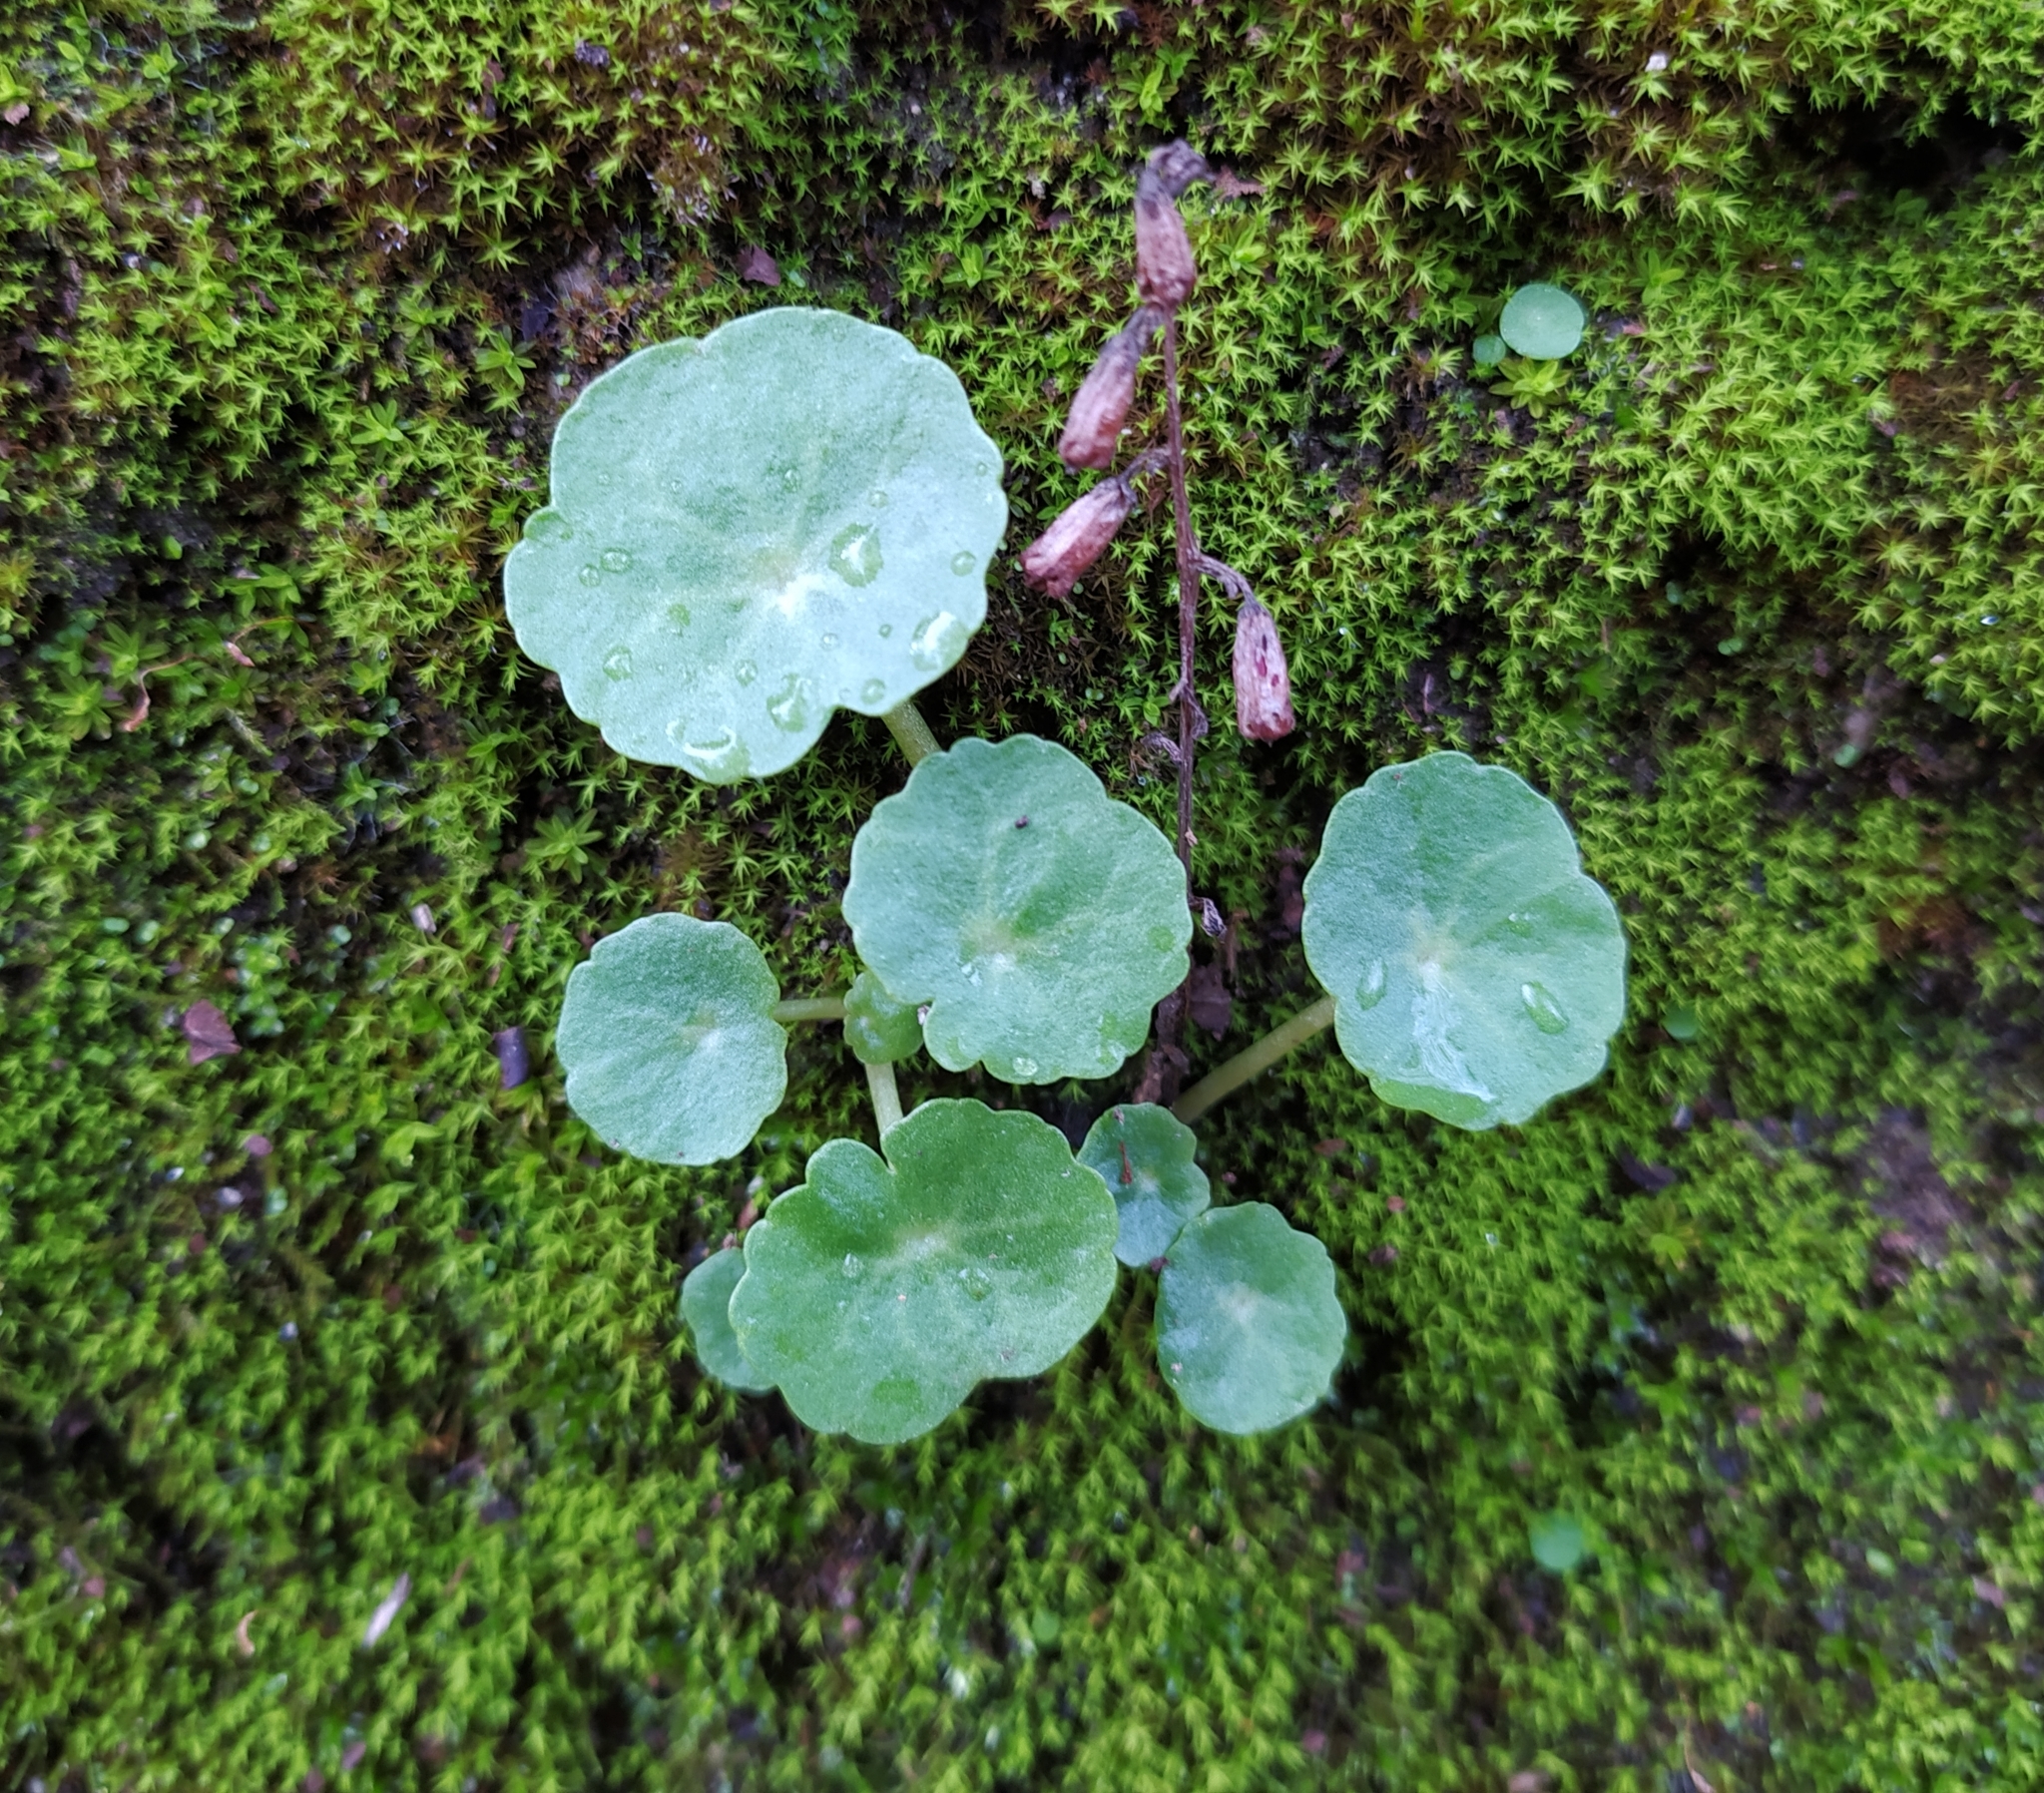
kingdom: Plantae
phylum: Tracheophyta
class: Magnoliopsida
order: Saxifragales
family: Crassulaceae
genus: Umbilicus
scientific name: Umbilicus rupestris
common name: Navelwort
